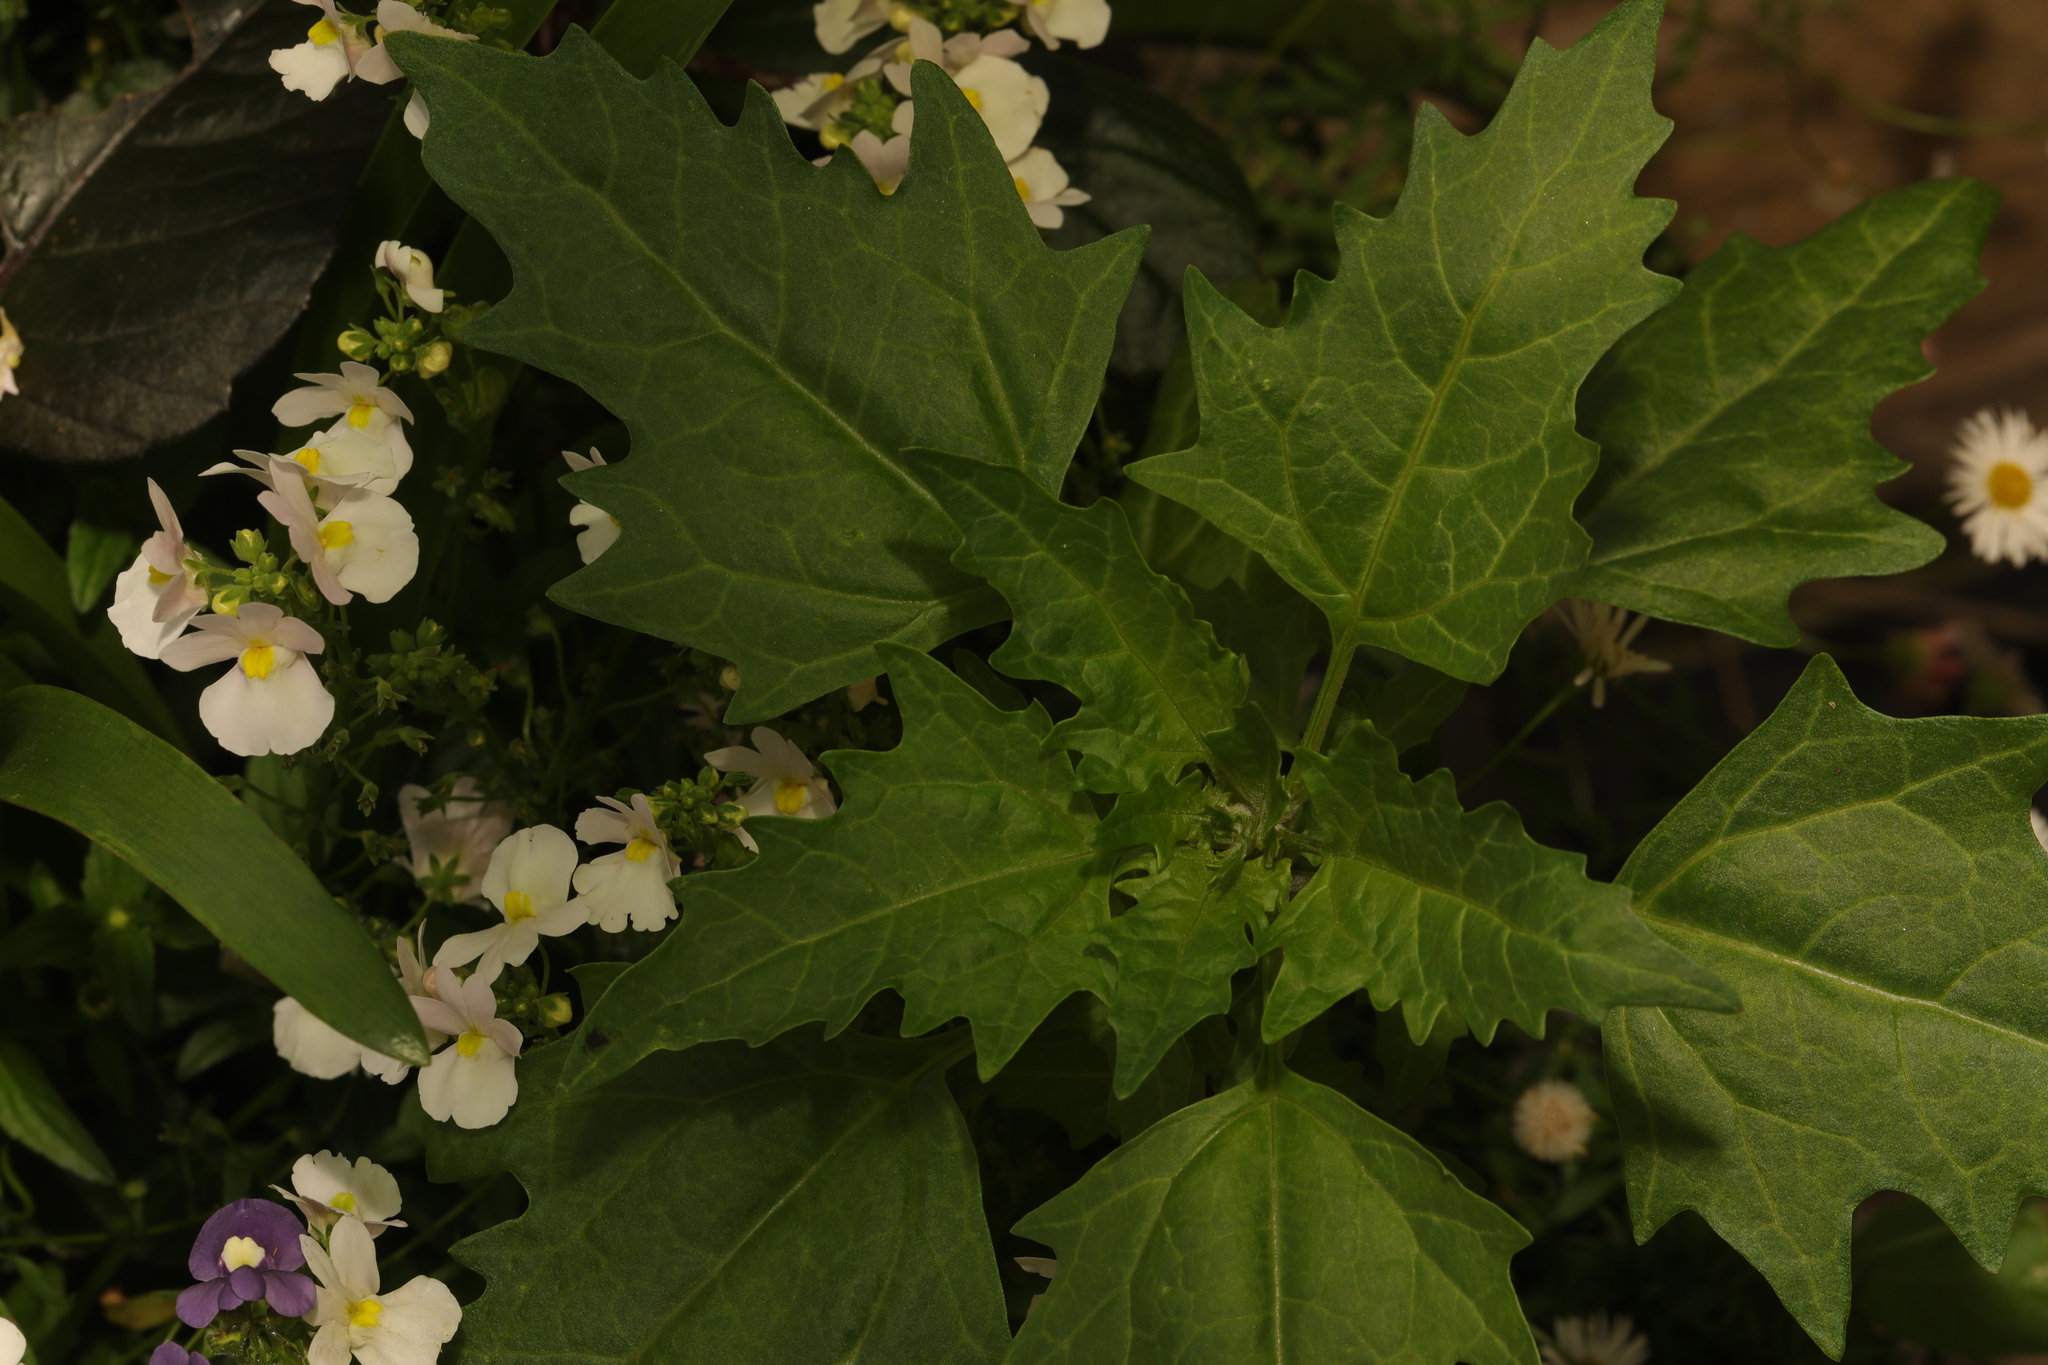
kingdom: Plantae
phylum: Tracheophyta
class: Magnoliopsida
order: Caryophyllales
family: Amaranthaceae
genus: Oxybasis
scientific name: Oxybasis rubra
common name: Red goosefoot
